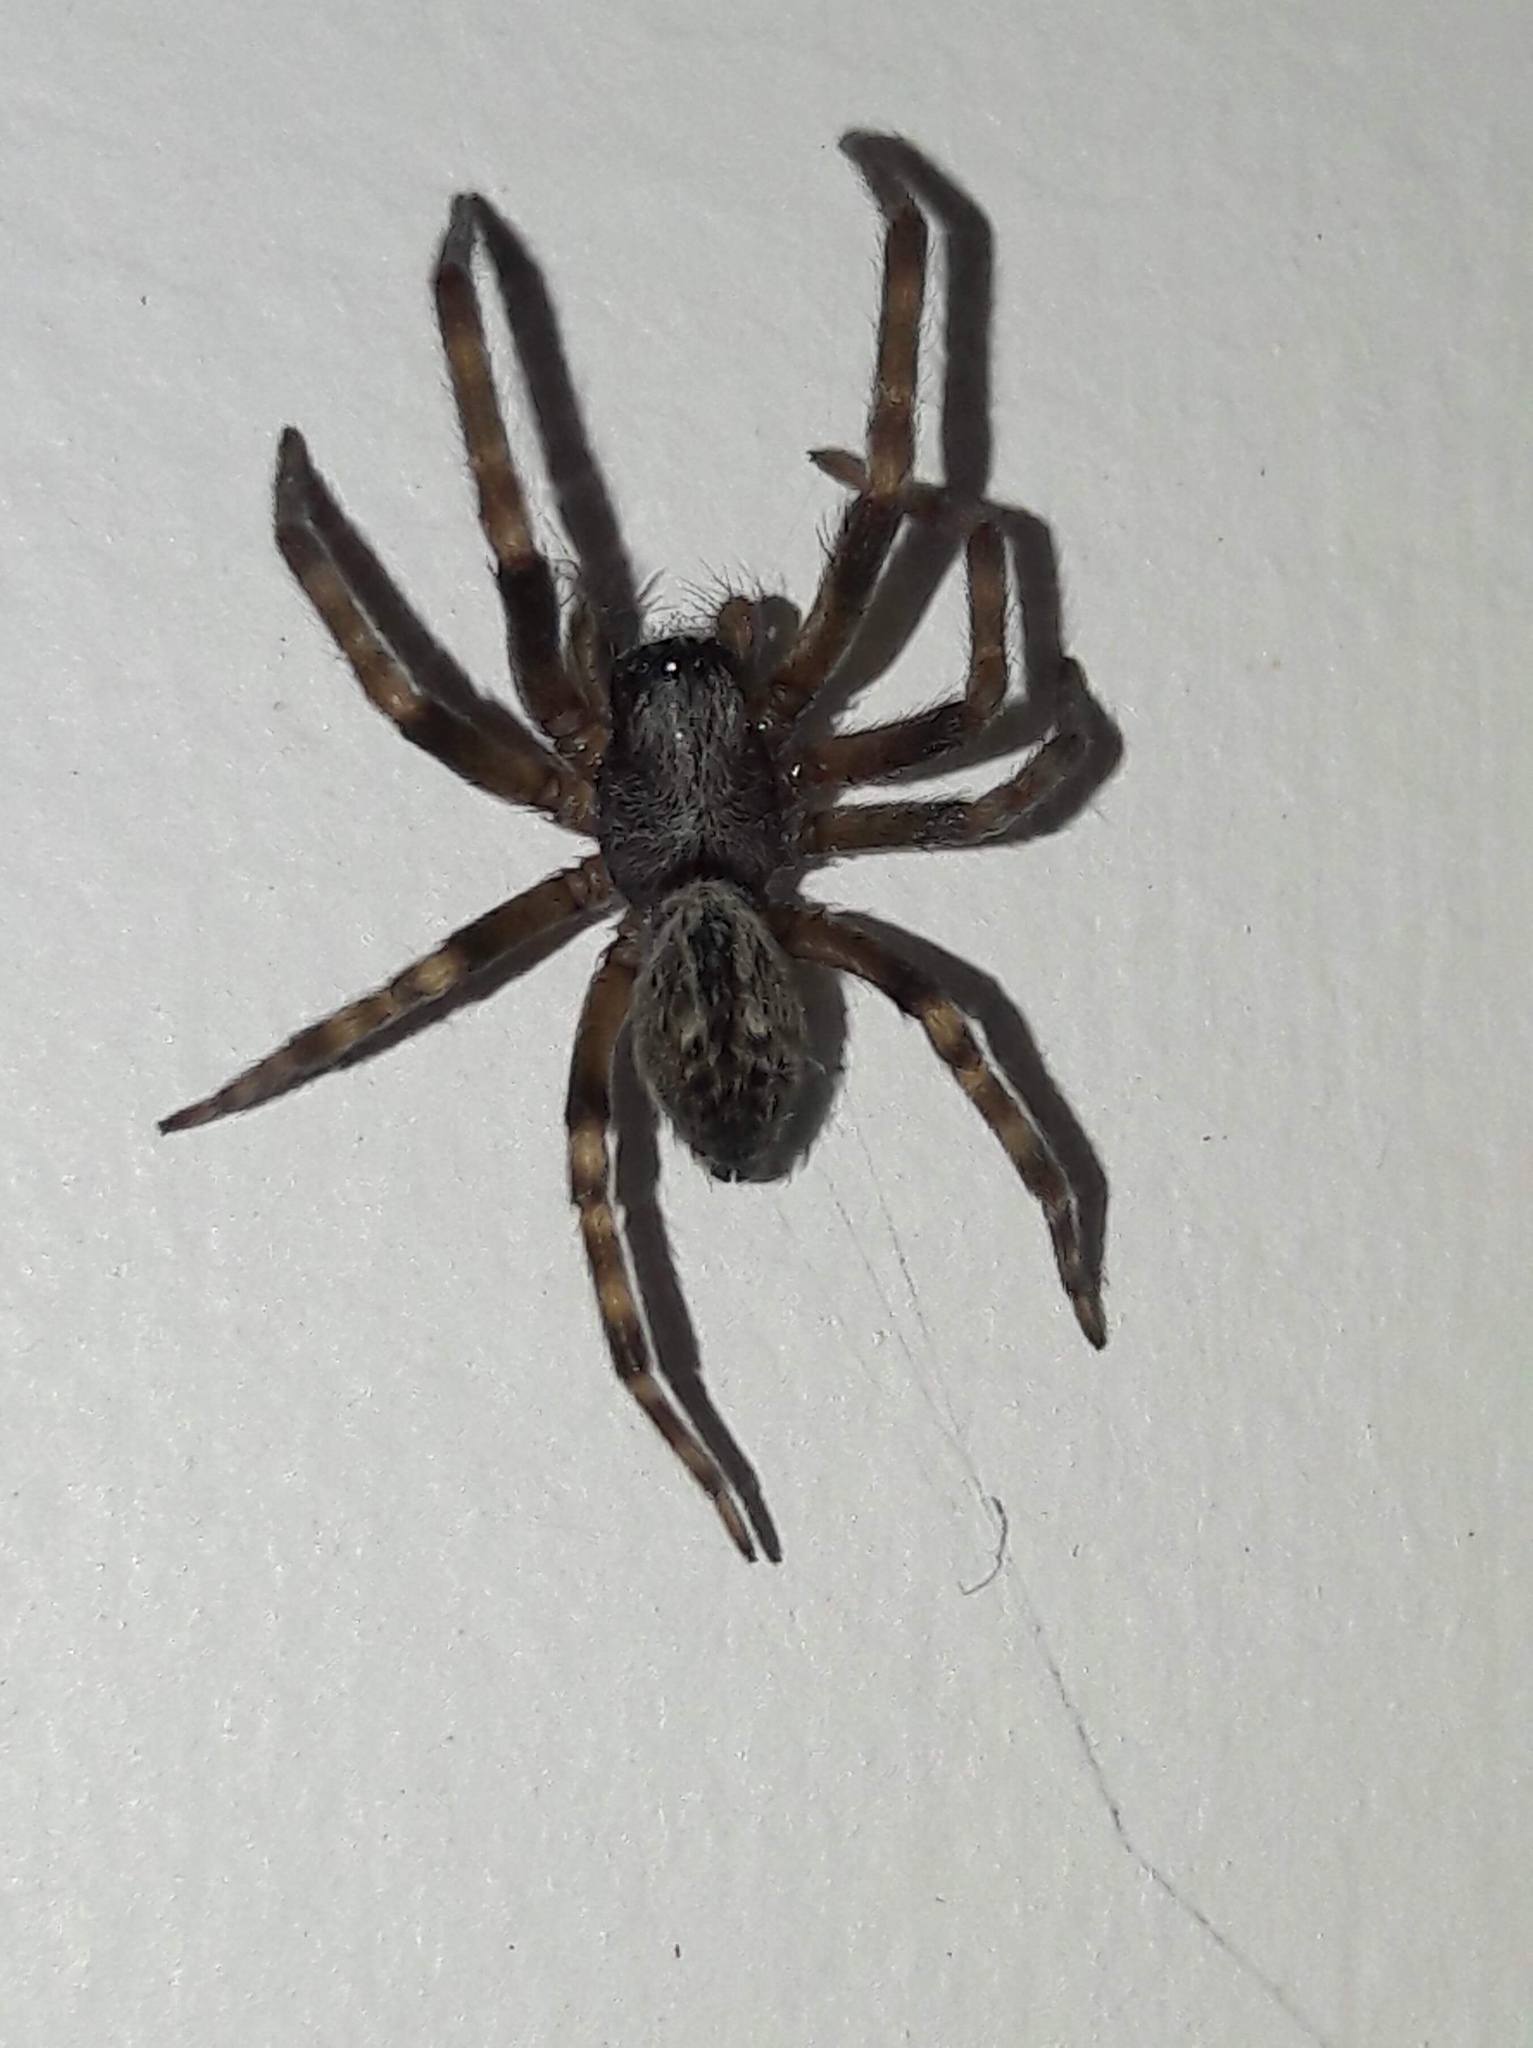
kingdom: Animalia
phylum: Arthropoda
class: Arachnida
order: Araneae
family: Desidae
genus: Badumna
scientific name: Badumna longinqua
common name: Gray house spider
